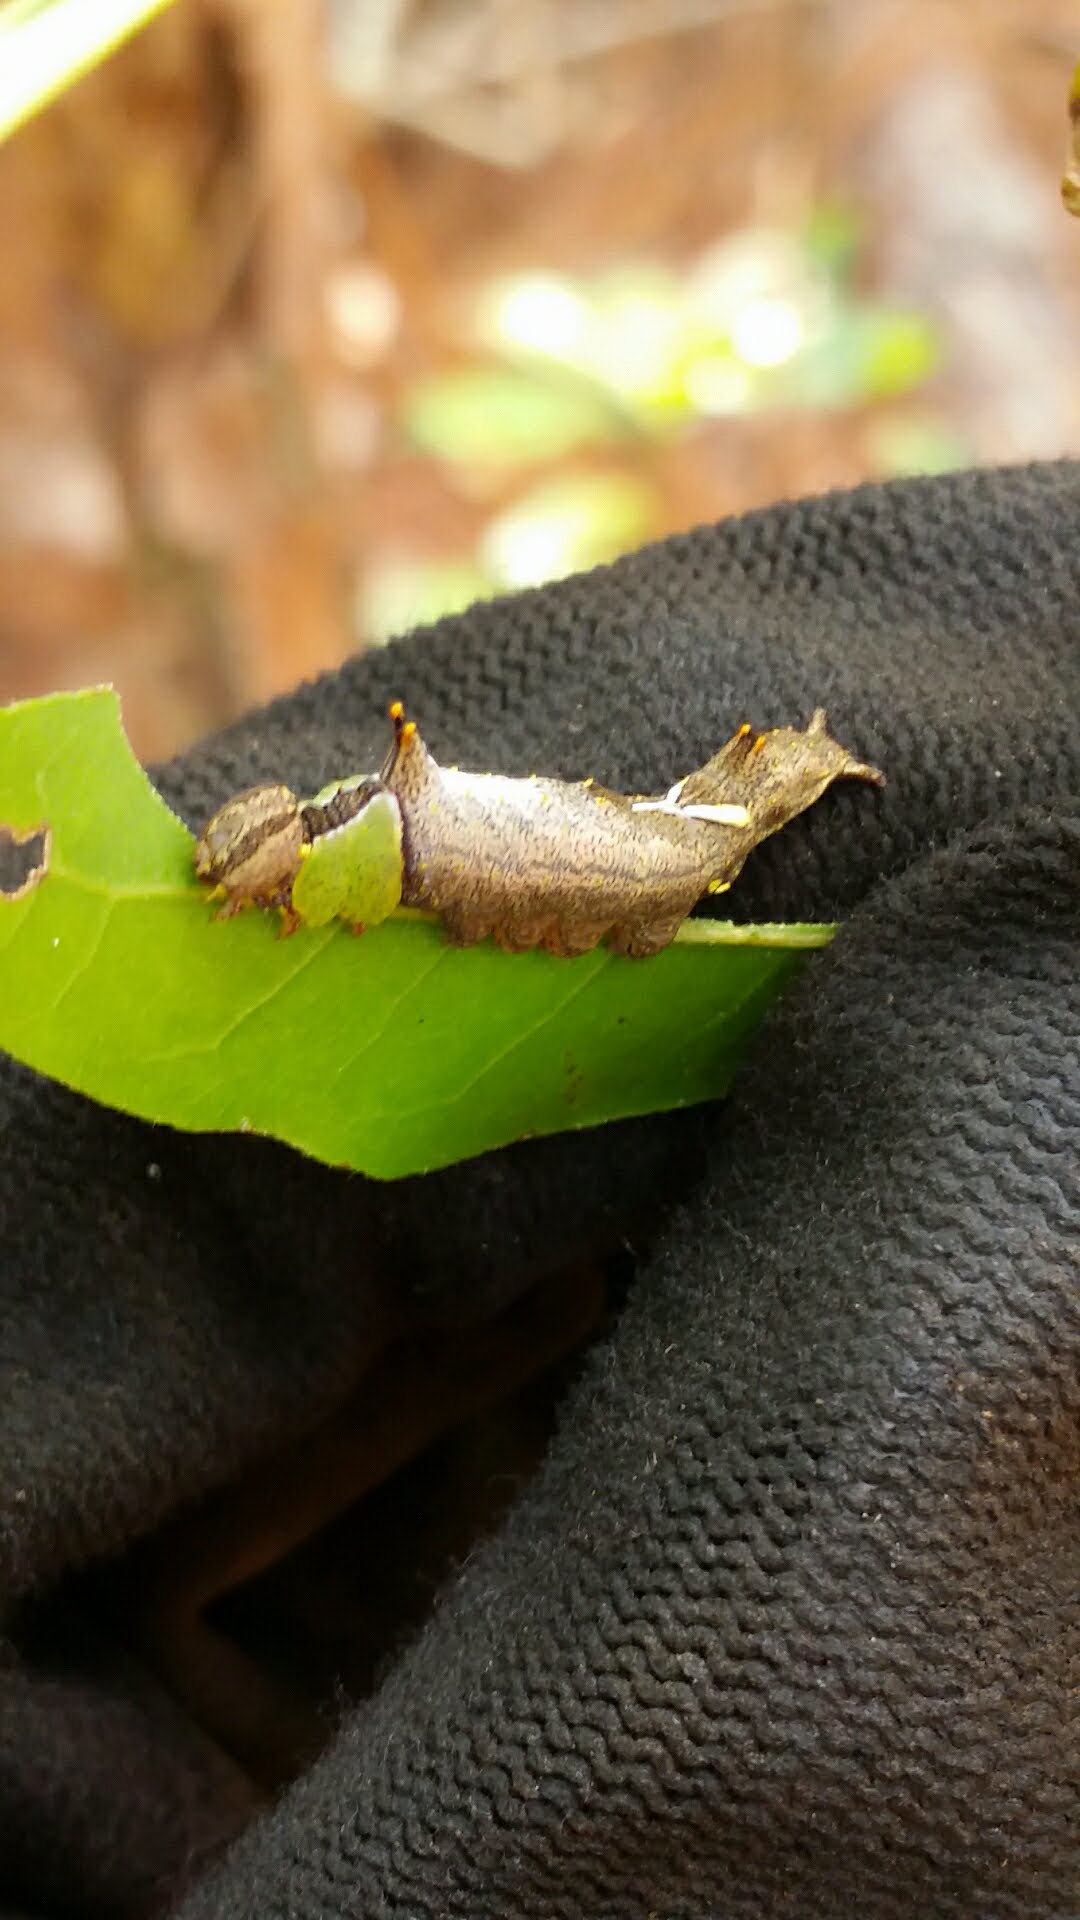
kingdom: Animalia
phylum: Arthropoda
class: Insecta
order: Lepidoptera
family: Notodontidae
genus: Schizura
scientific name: Schizura
